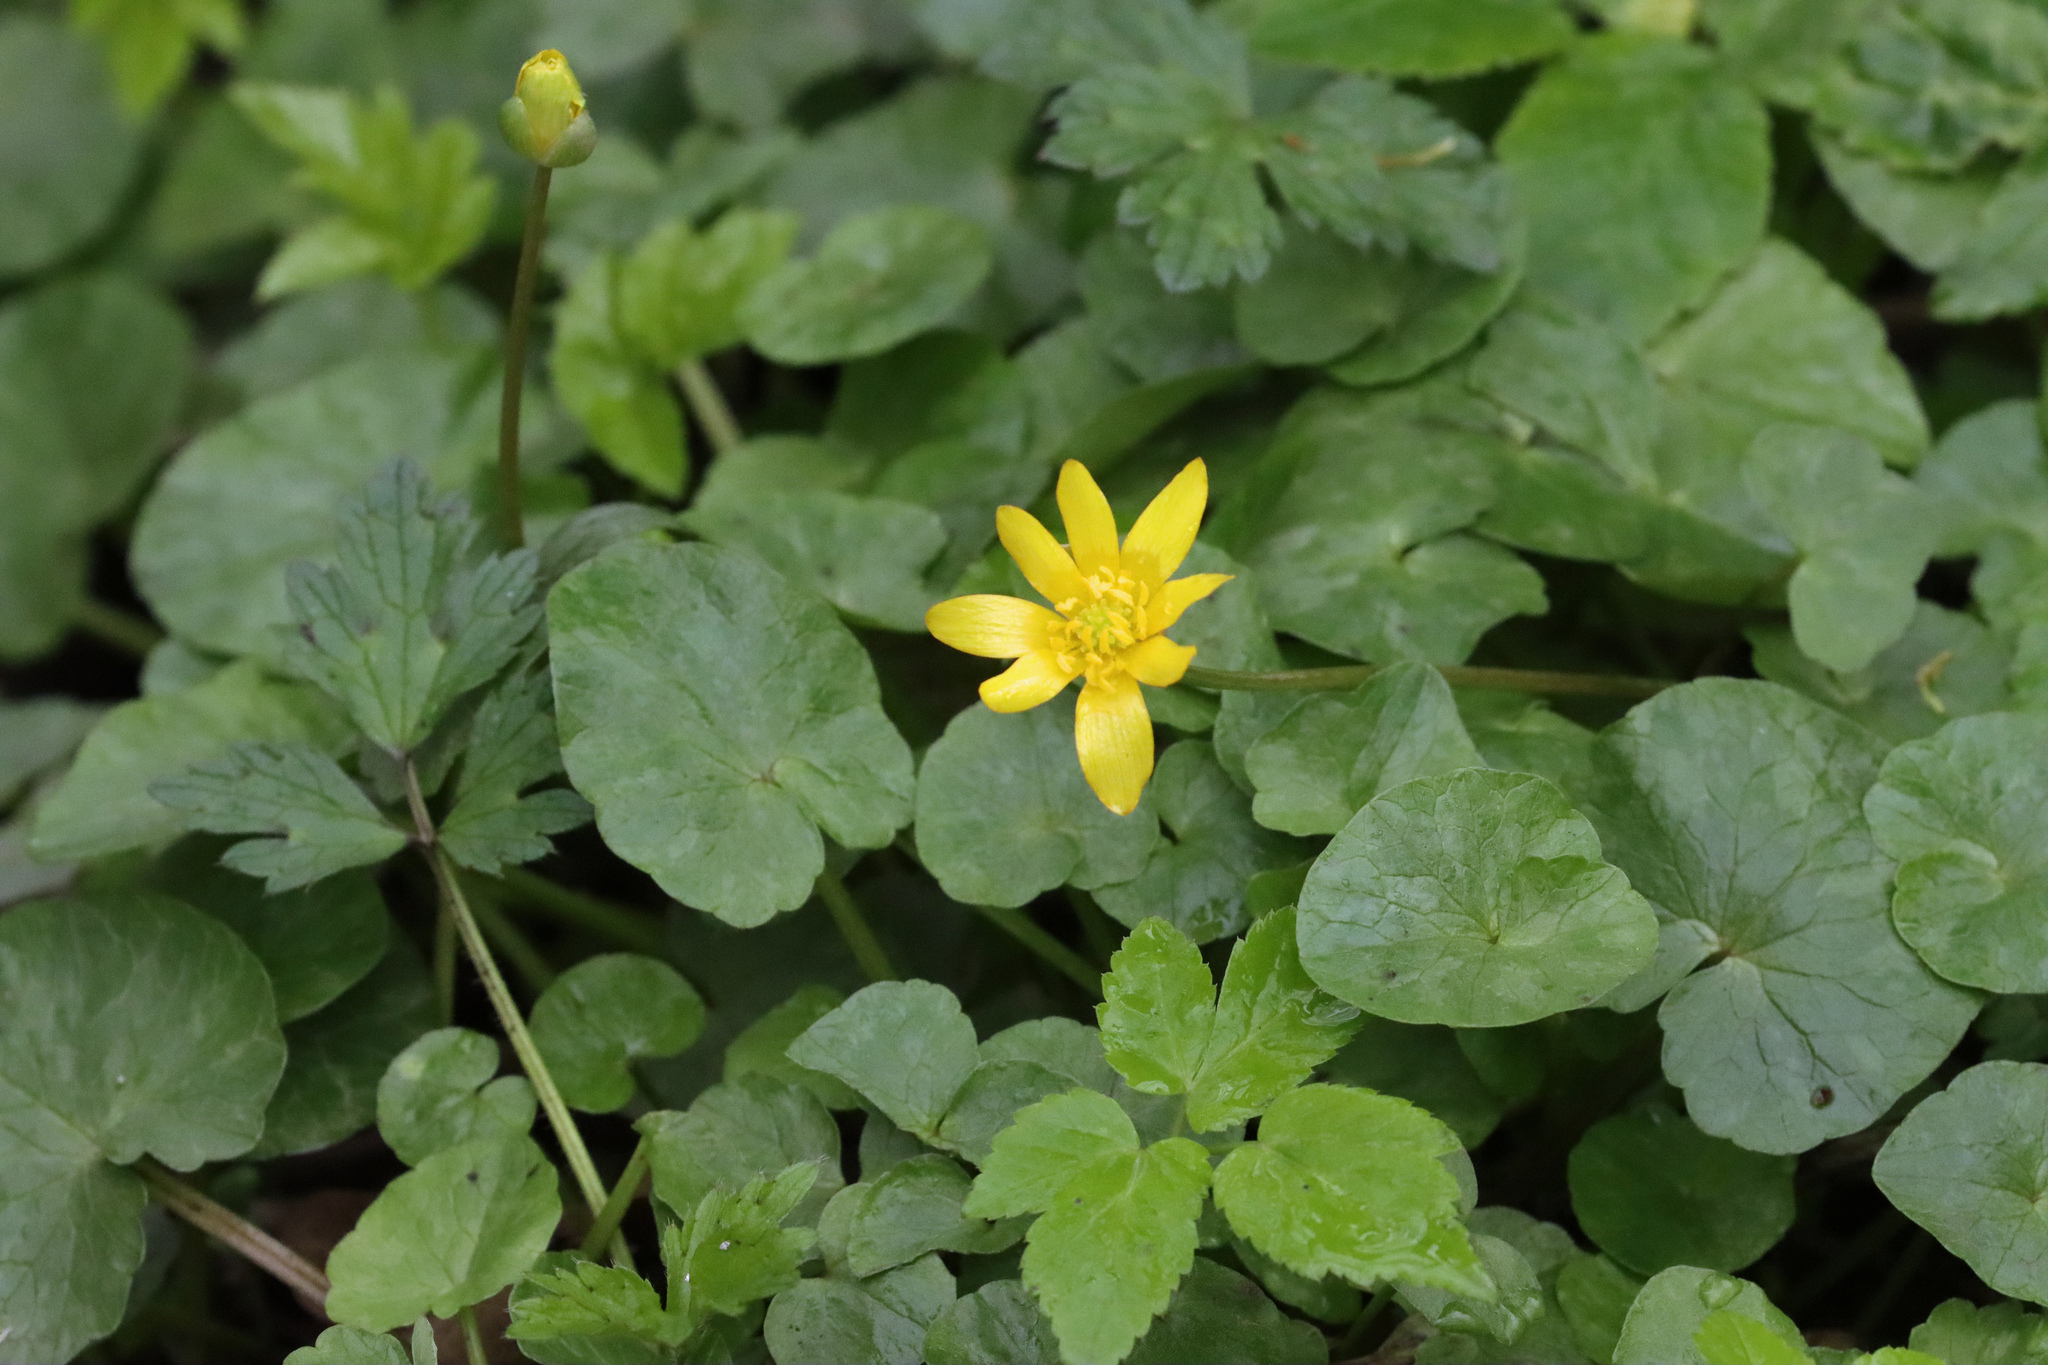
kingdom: Plantae
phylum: Tracheophyta
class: Magnoliopsida
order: Ranunculales
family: Ranunculaceae
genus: Ficaria
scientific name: Ficaria verna
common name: Lesser celandine
